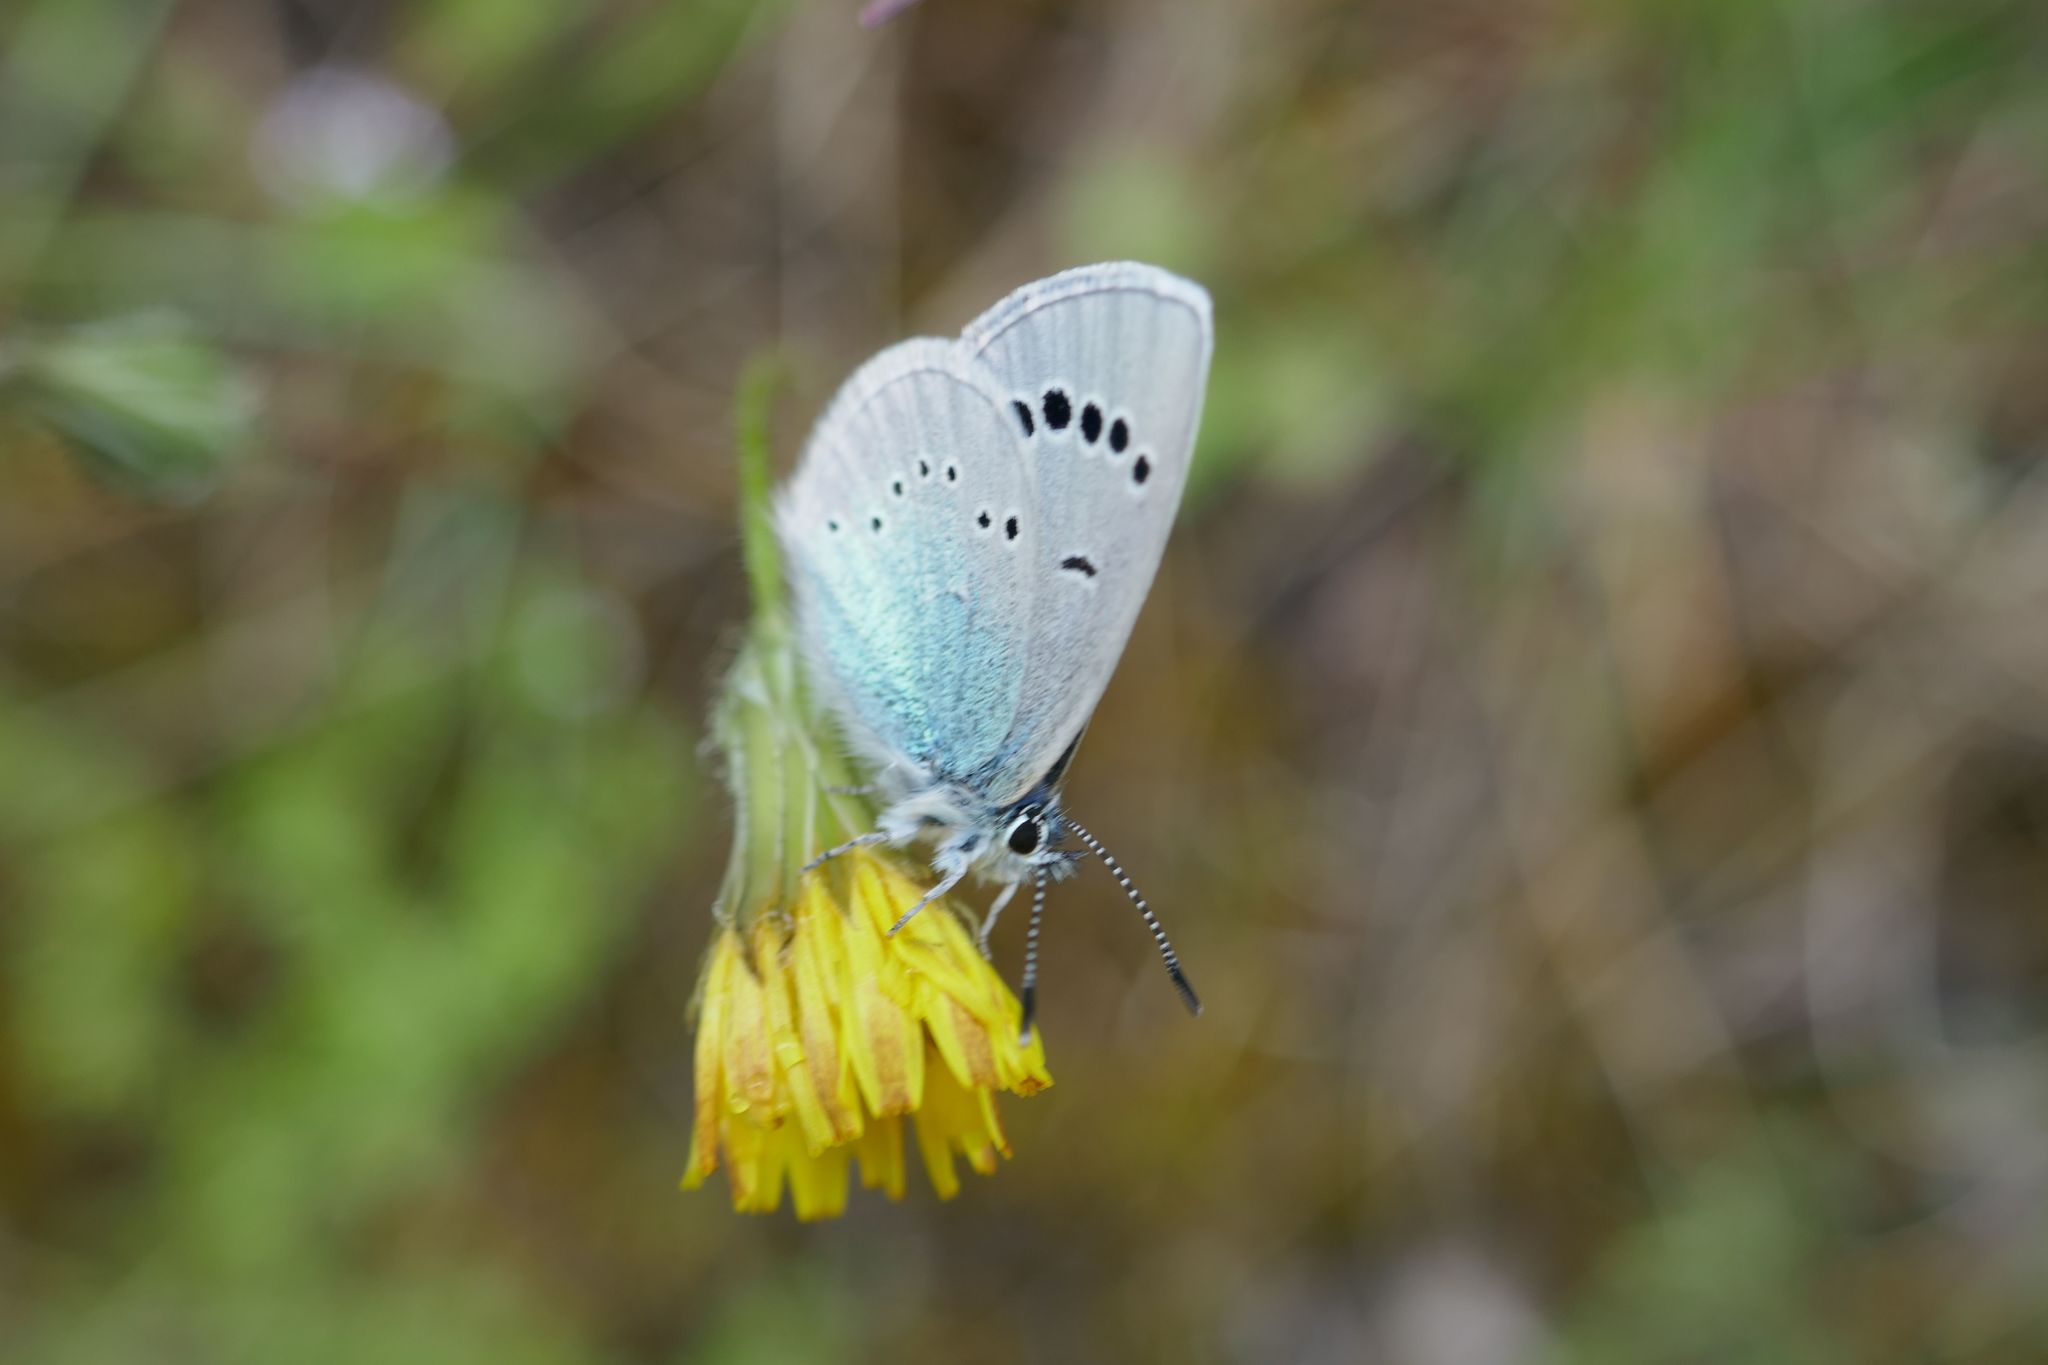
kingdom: Animalia
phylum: Arthropoda
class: Insecta
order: Lepidoptera
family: Lycaenidae
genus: Glaucopsyche
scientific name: Glaucopsyche alexis
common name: Green-underside blue
